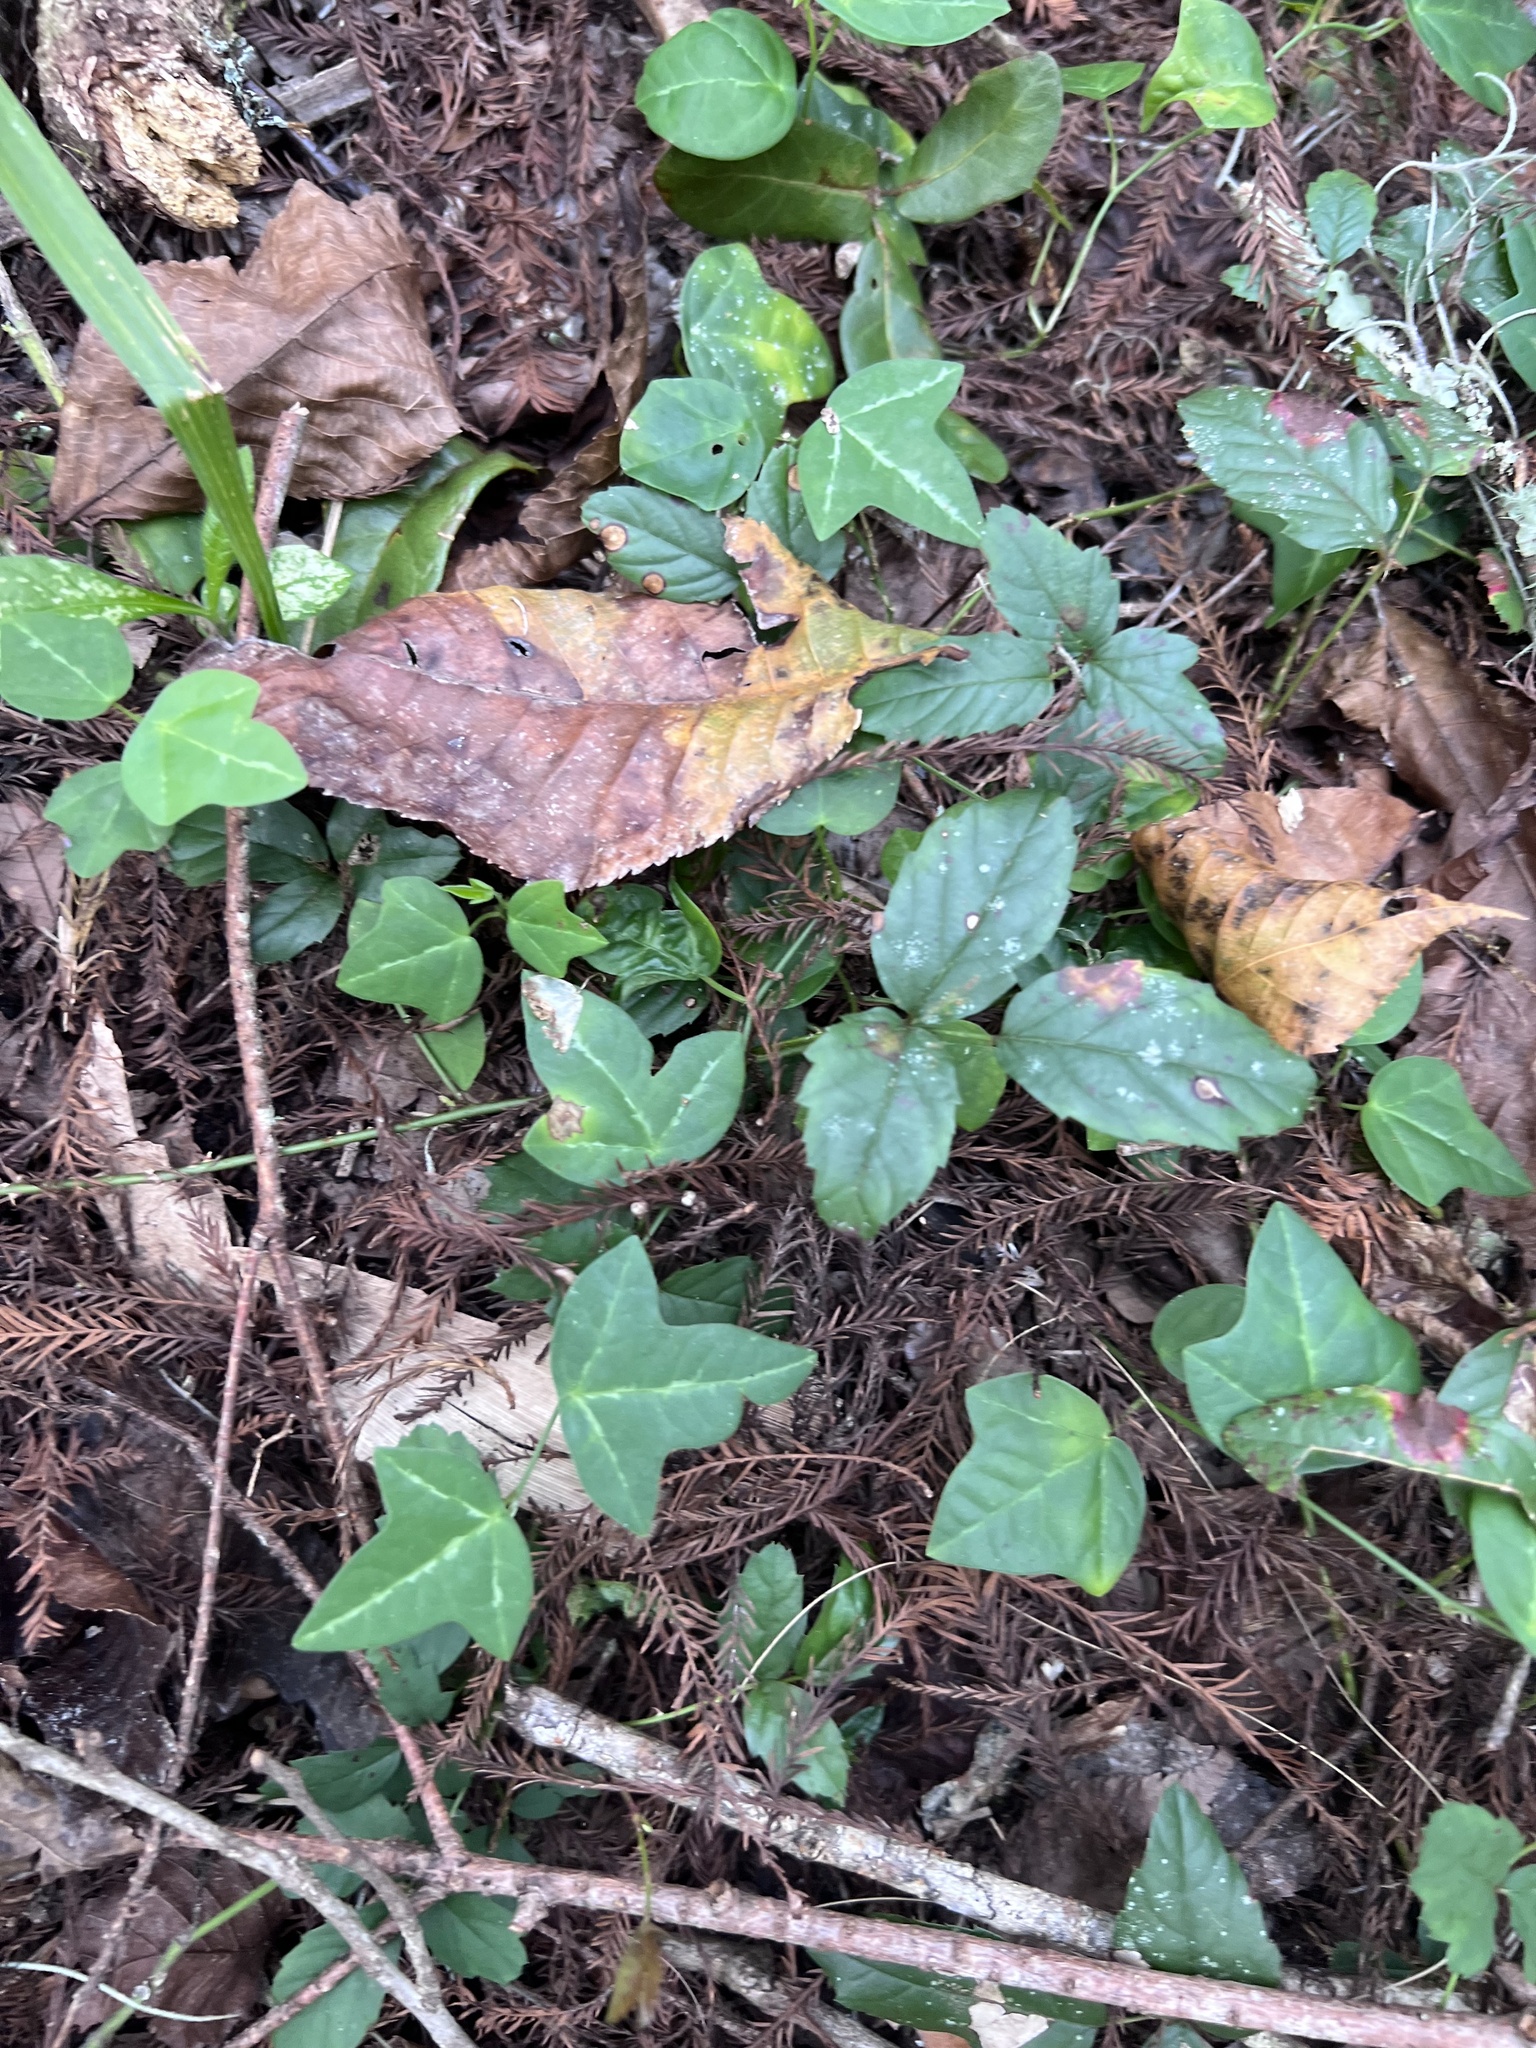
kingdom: Plantae
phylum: Tracheophyta
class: Magnoliopsida
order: Apiales
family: Araliaceae
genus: Hedera
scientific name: Hedera helix
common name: Ivy
